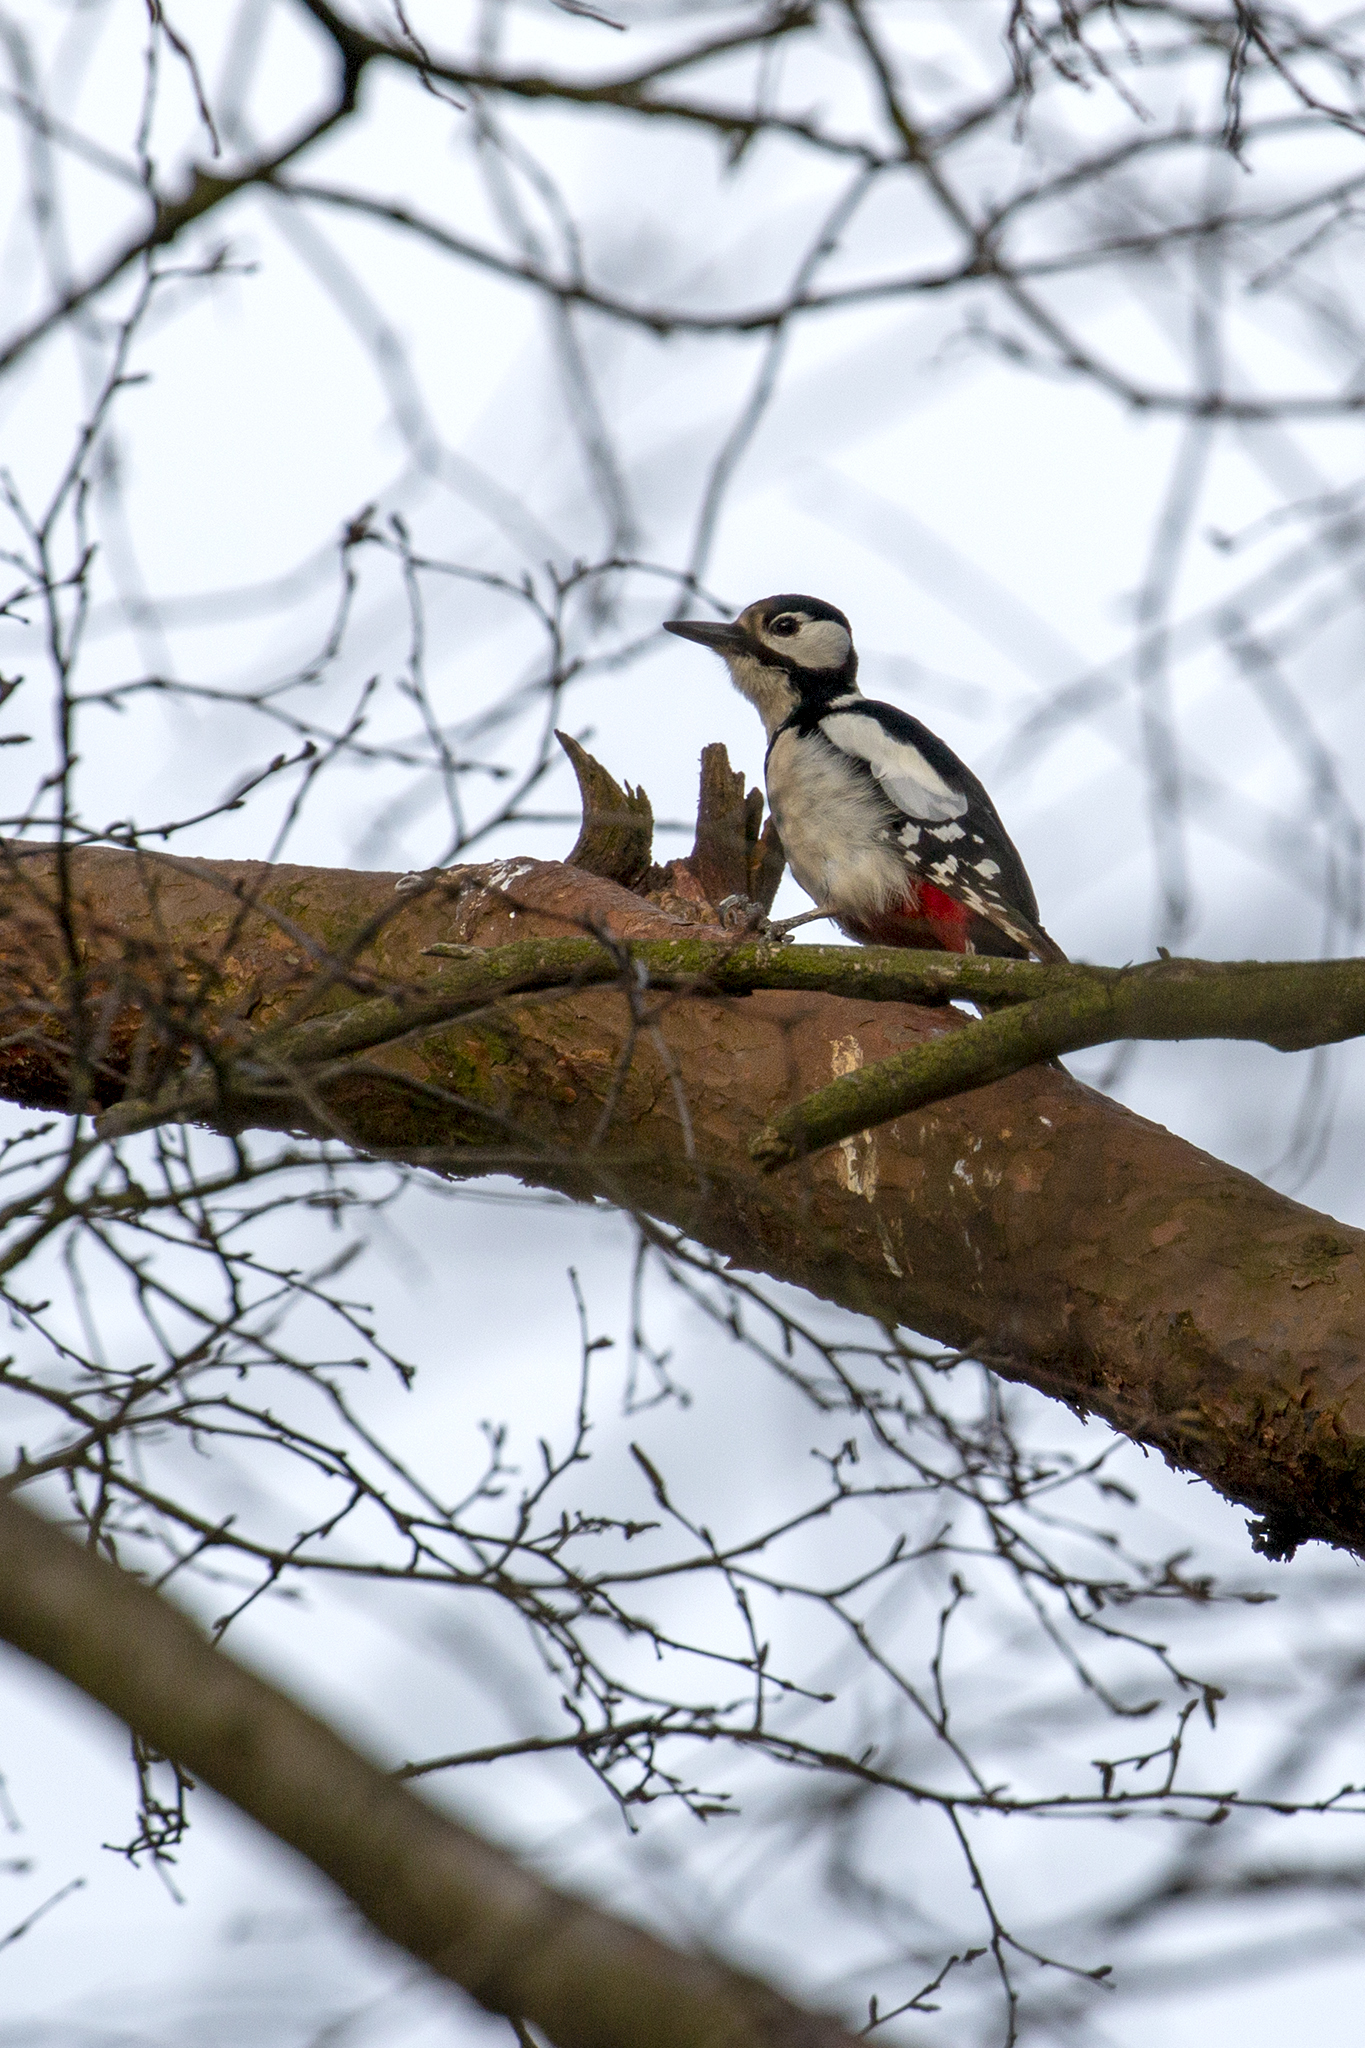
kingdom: Animalia
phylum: Chordata
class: Aves
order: Piciformes
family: Picidae
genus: Dendrocopos
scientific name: Dendrocopos major
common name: Great spotted woodpecker
